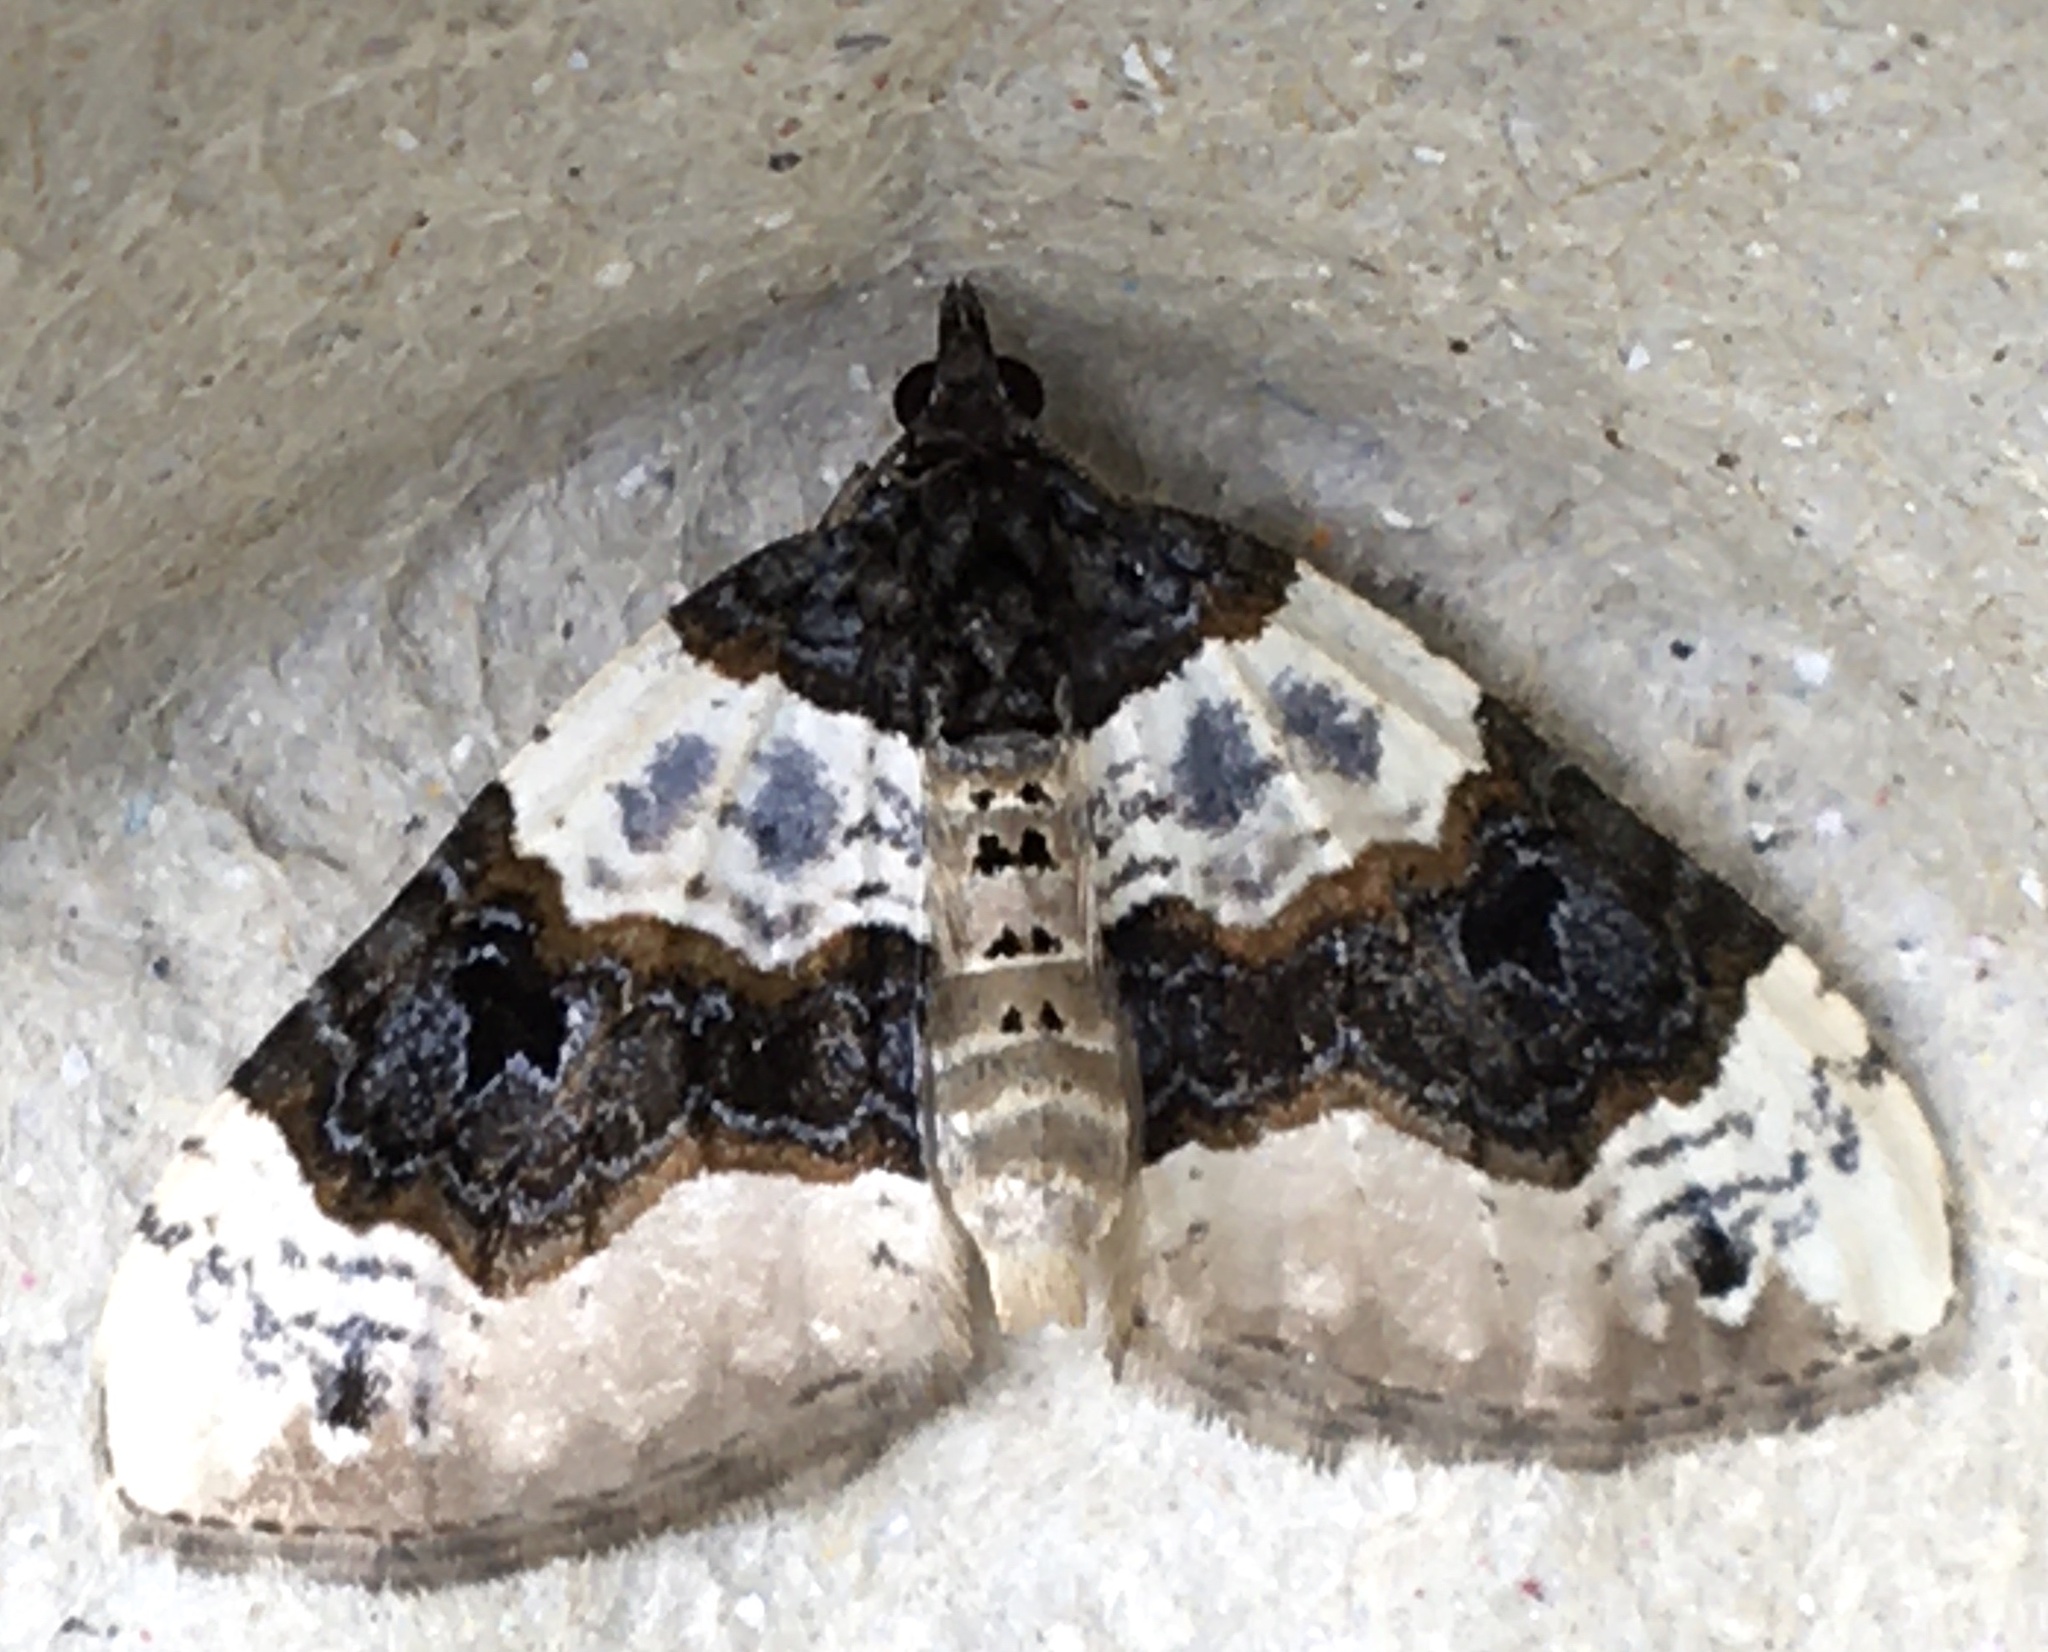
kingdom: Animalia
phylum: Arthropoda
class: Insecta
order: Lepidoptera
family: Geometridae
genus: Cosmorhoe
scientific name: Cosmorhoe ocellata
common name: Purple bar
